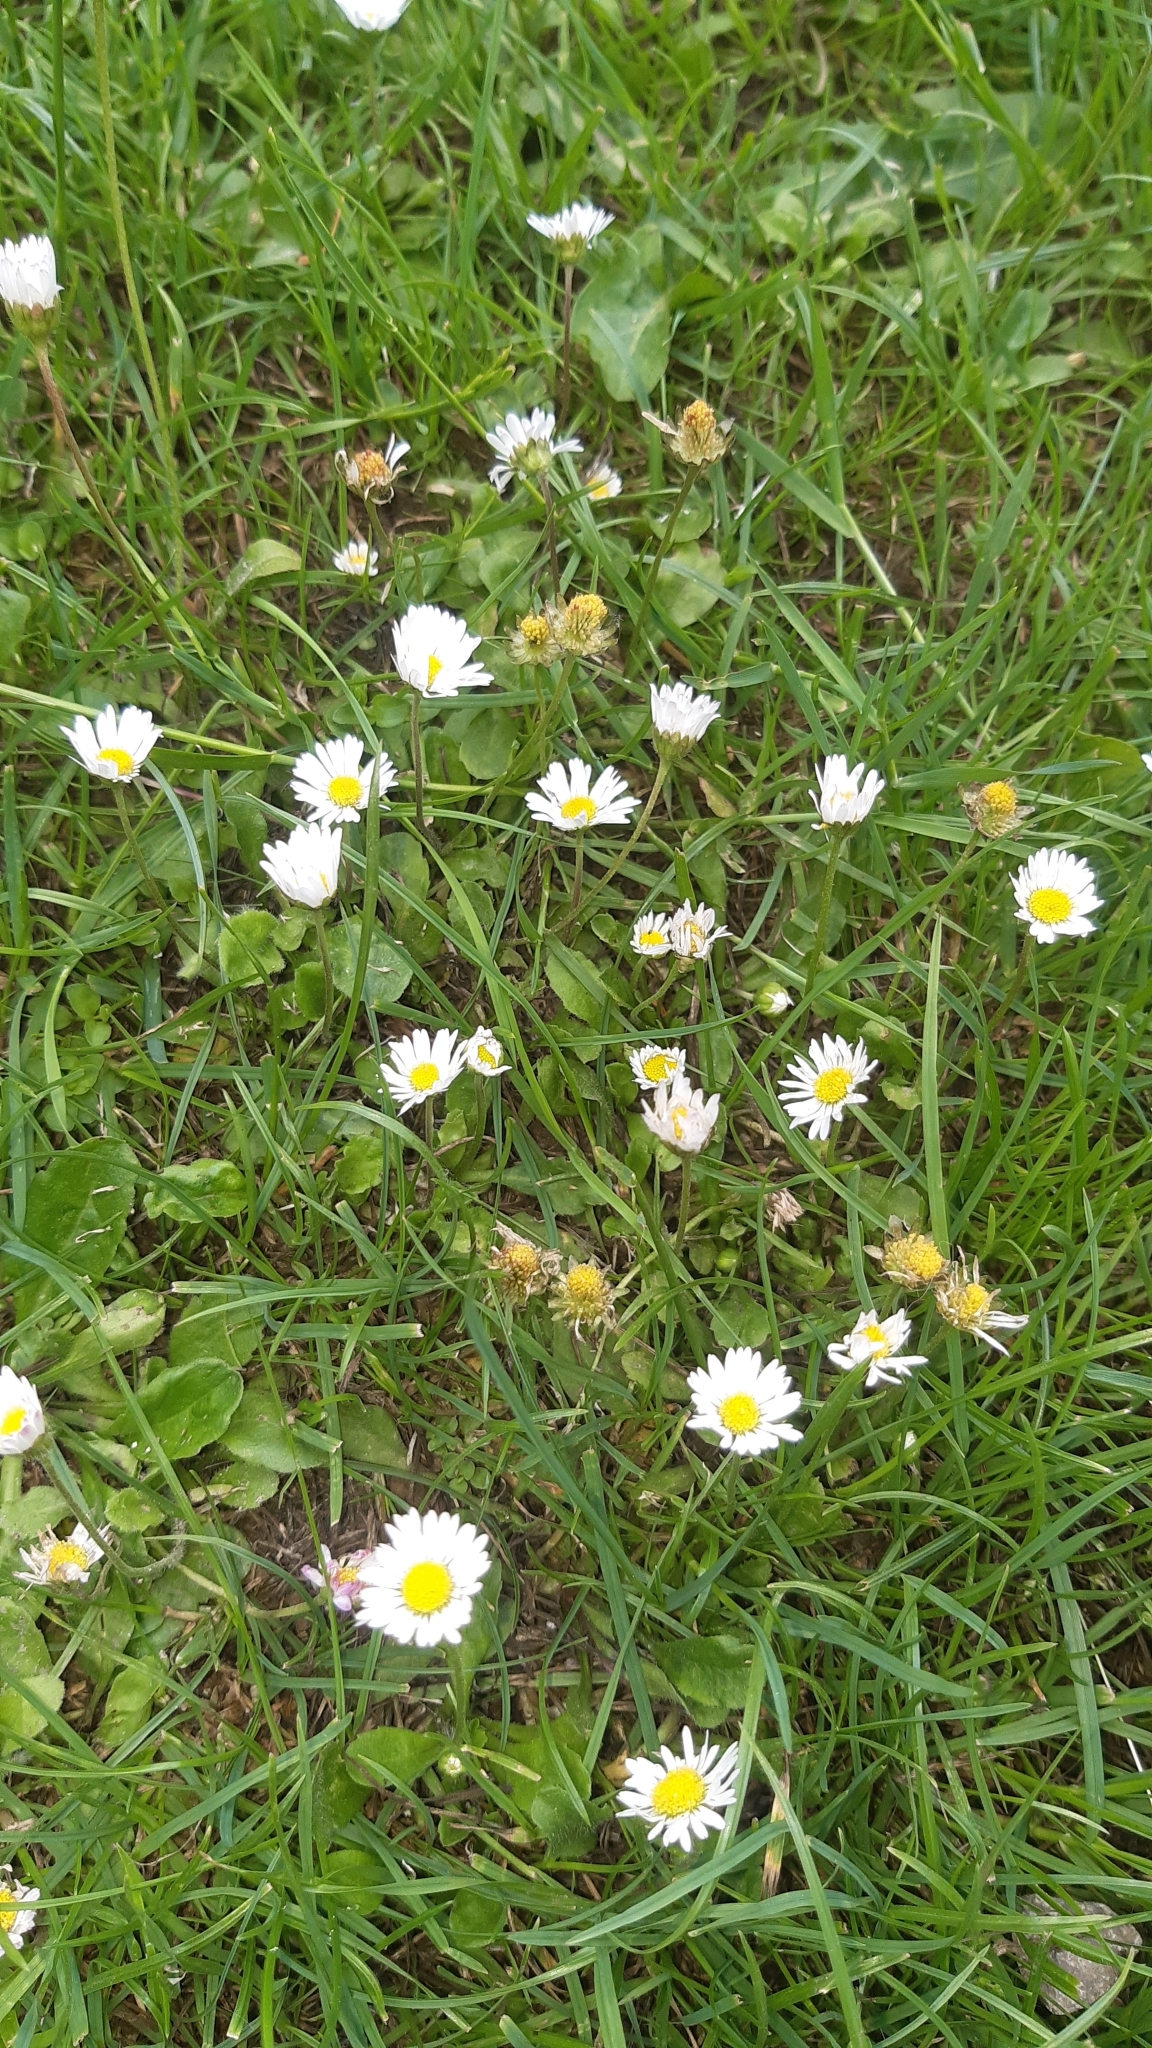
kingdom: Plantae
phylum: Tracheophyta
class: Magnoliopsida
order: Asterales
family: Asteraceae
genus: Bellis
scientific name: Bellis perennis
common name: Lawndaisy
